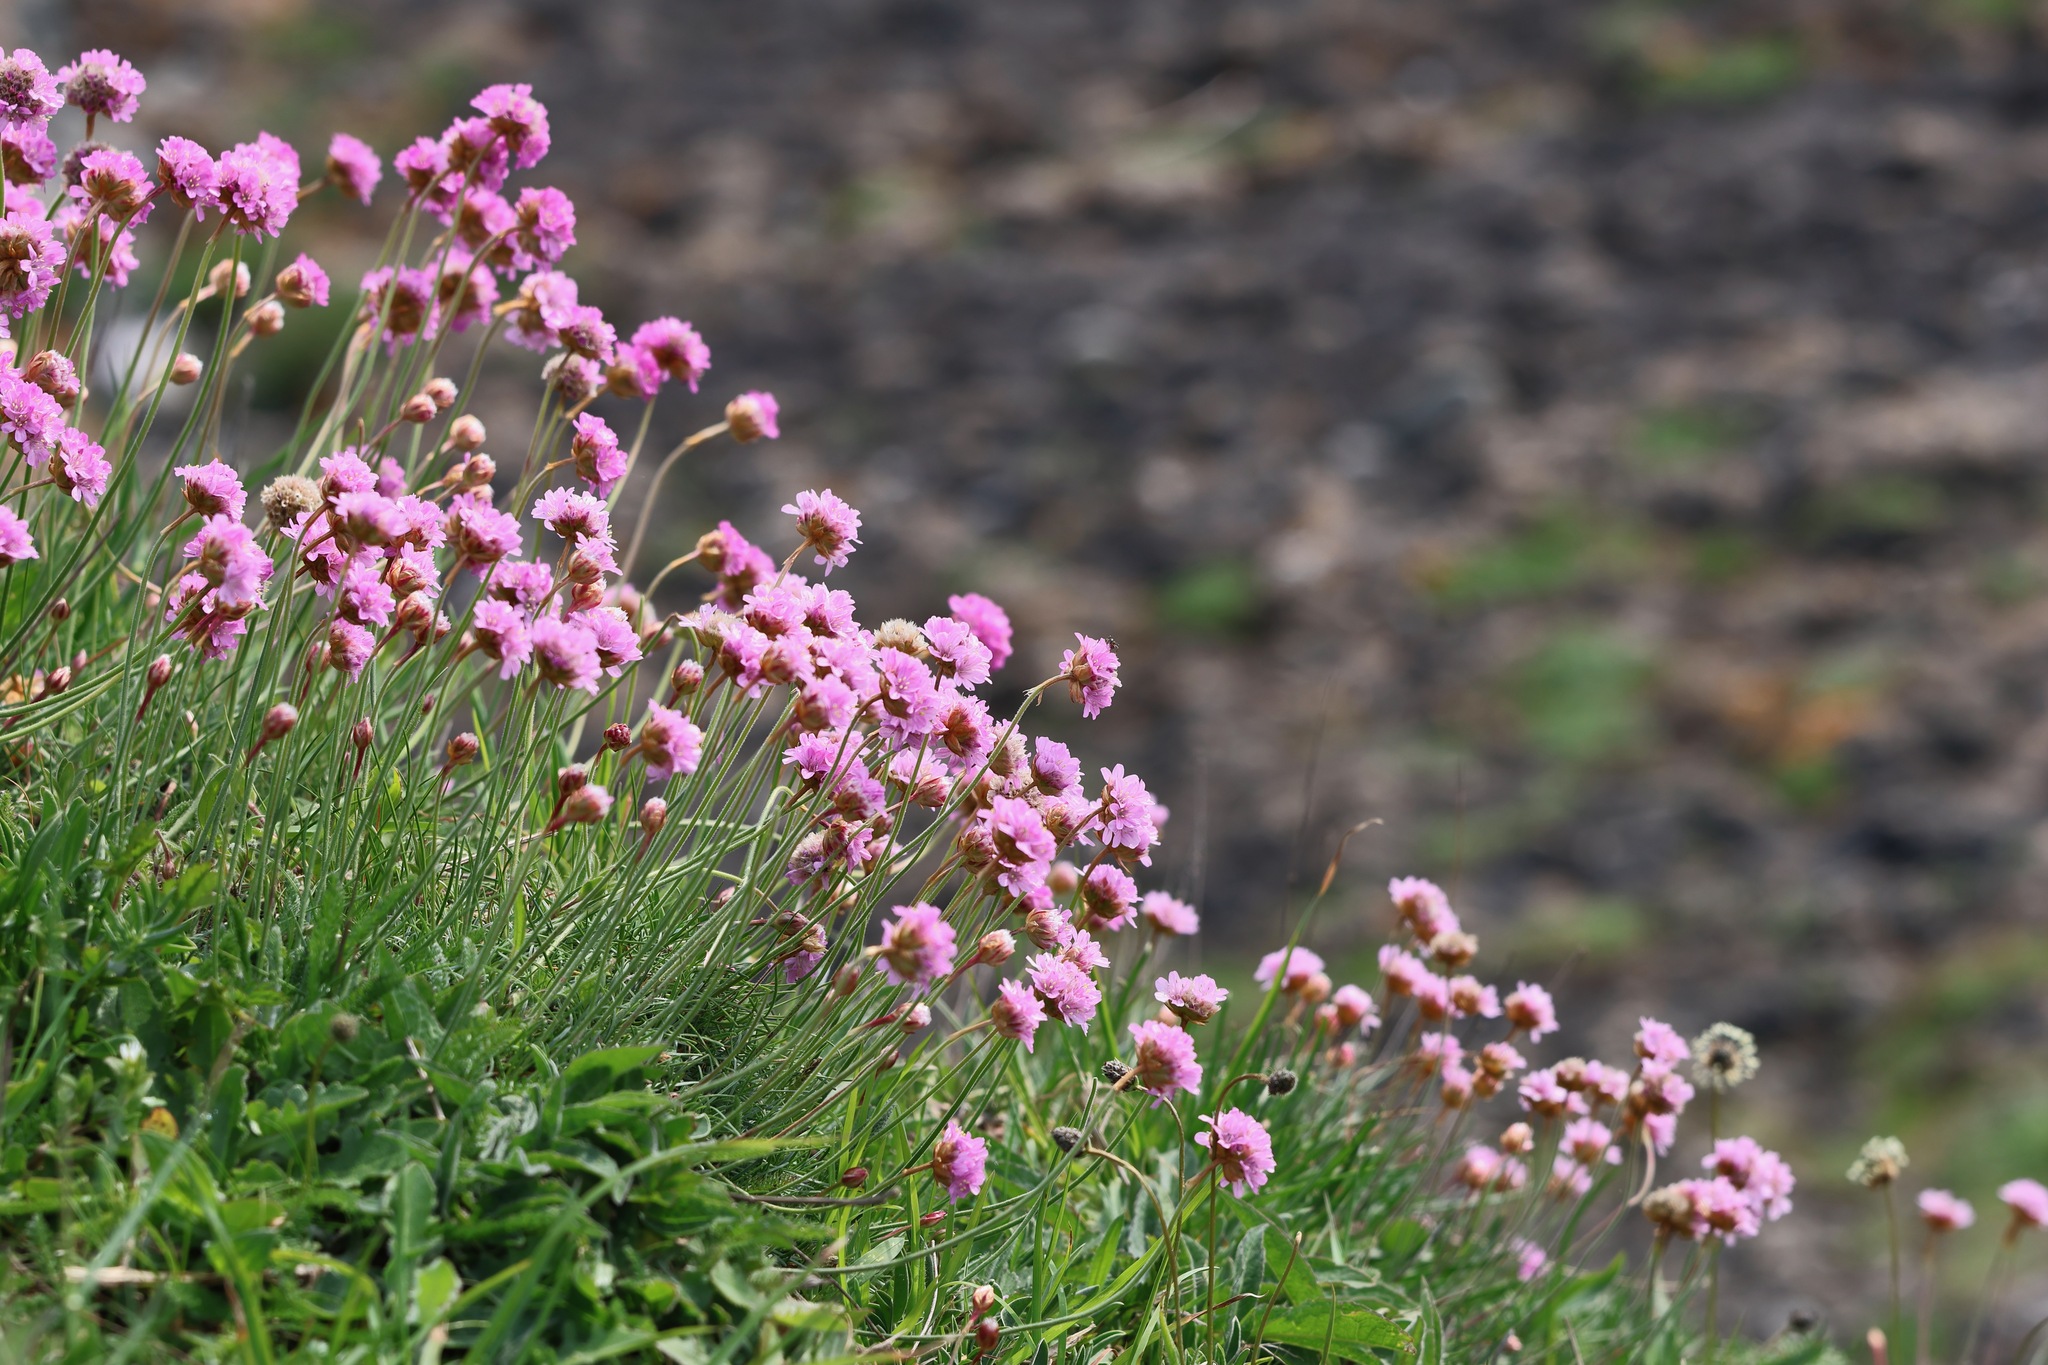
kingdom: Plantae
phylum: Tracheophyta
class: Magnoliopsida
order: Caryophyllales
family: Plumbaginaceae
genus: Armeria
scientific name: Armeria maritima
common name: Thrift
